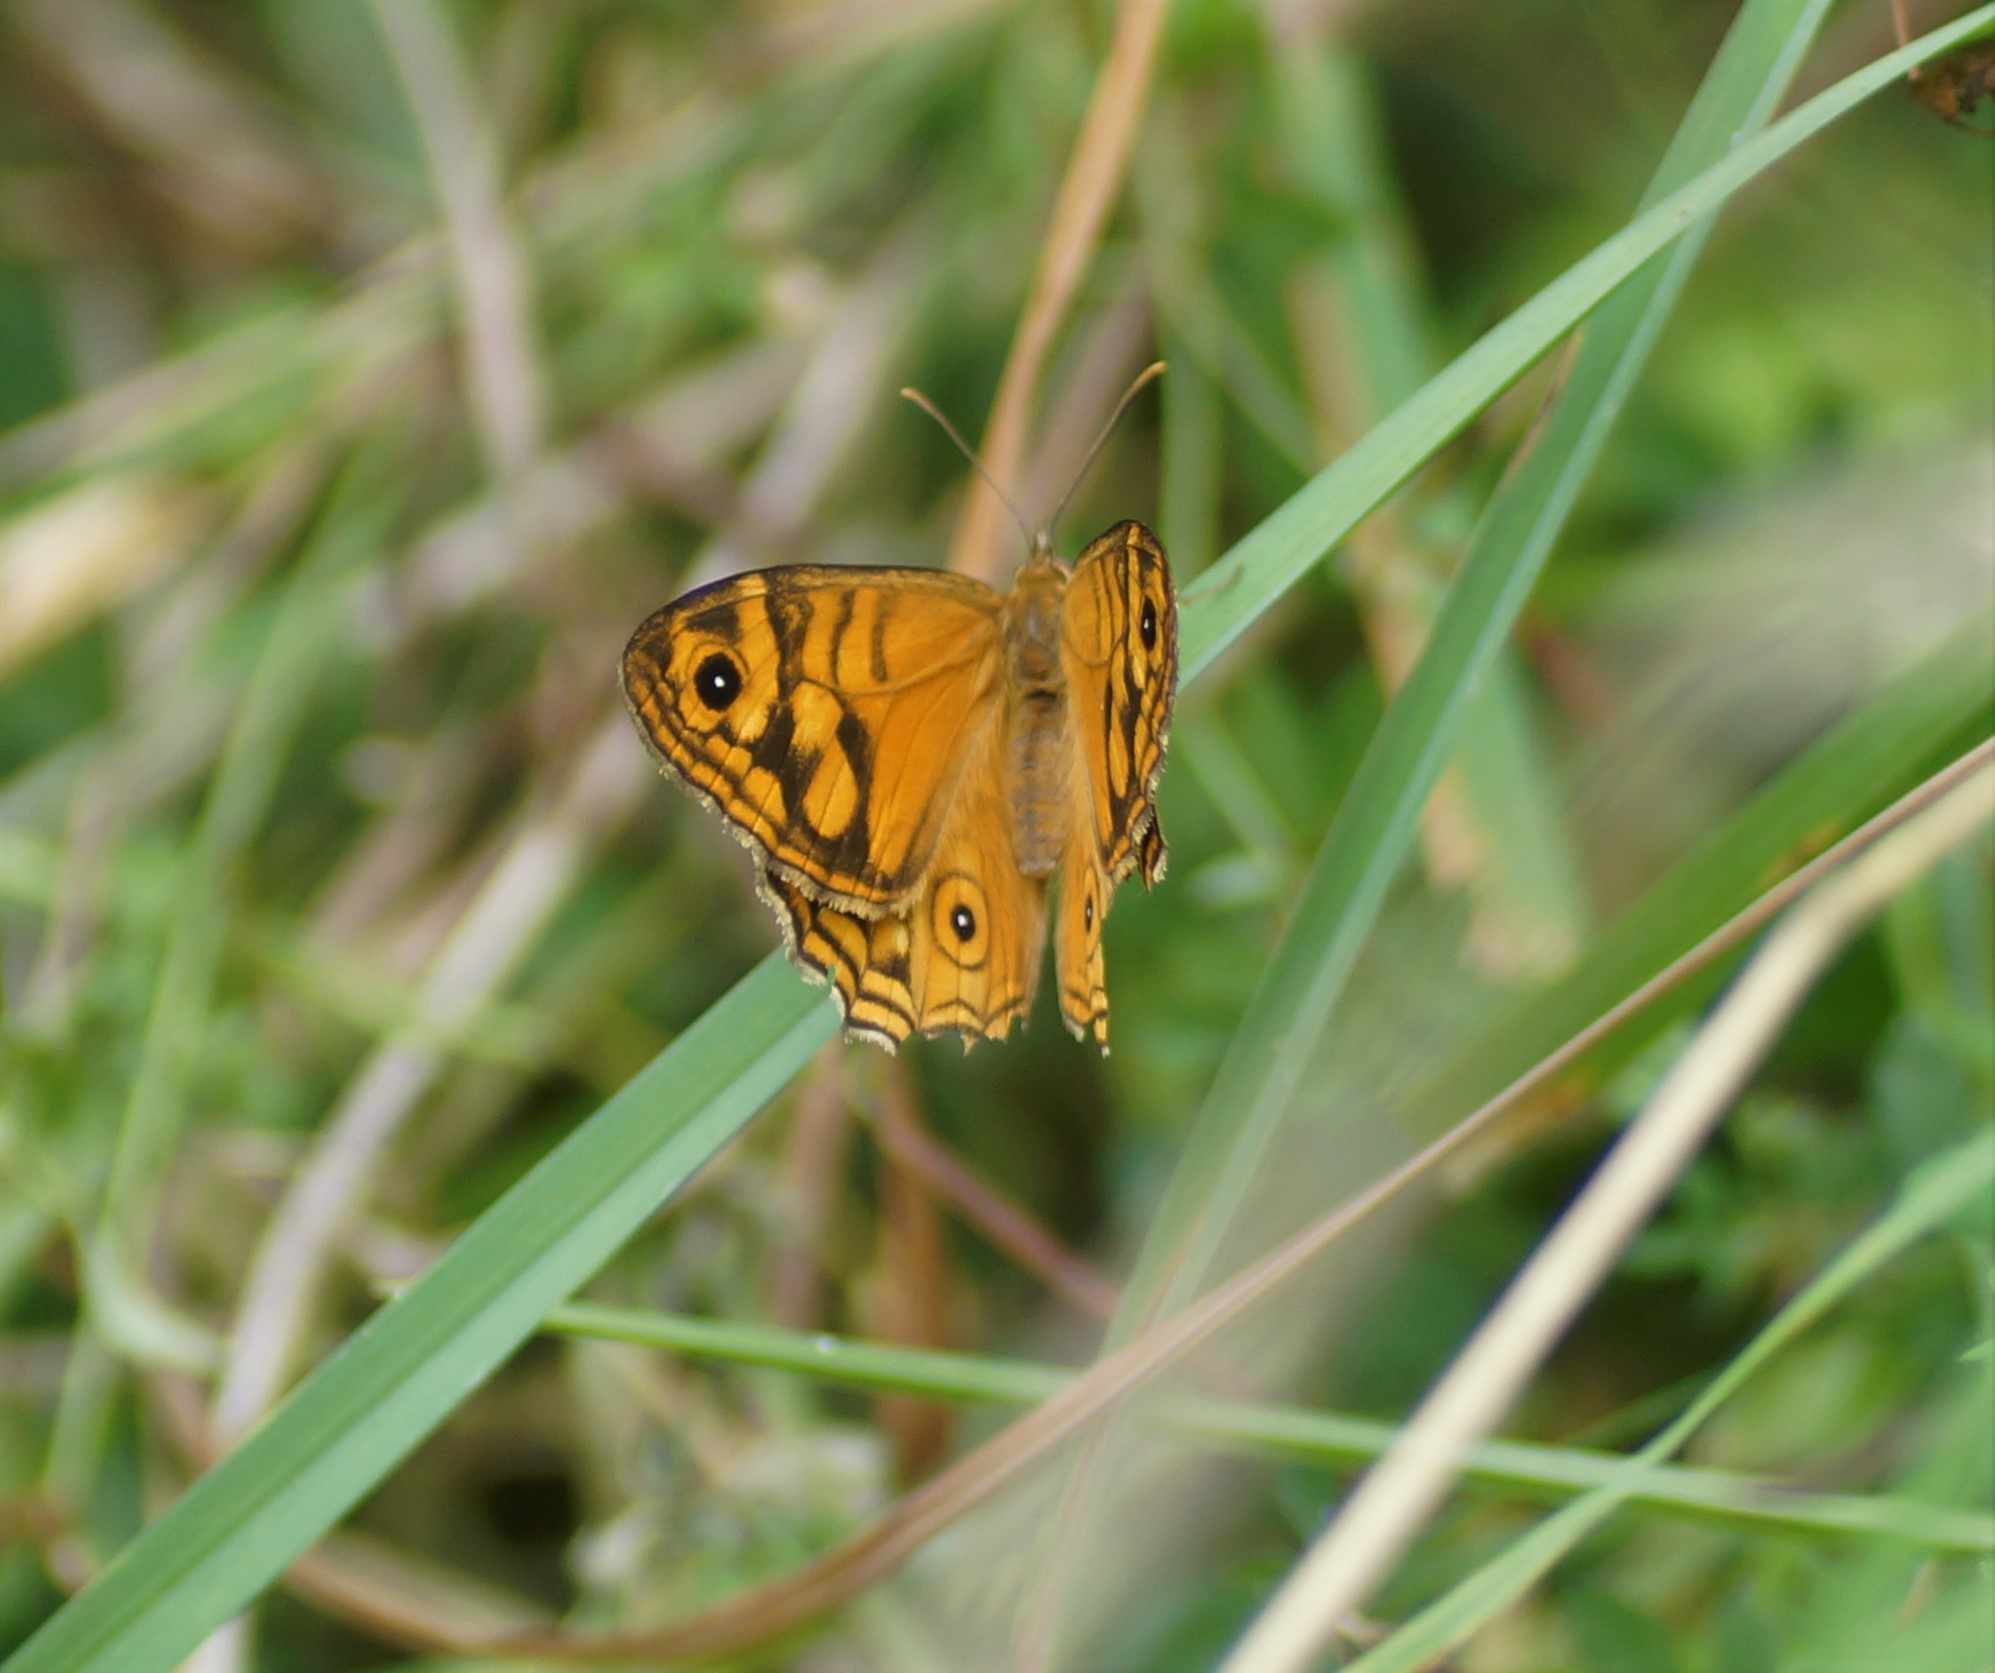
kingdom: Animalia
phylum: Arthropoda
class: Insecta
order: Lepidoptera
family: Nymphalidae
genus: Geitoneura
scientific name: Geitoneura acantha
